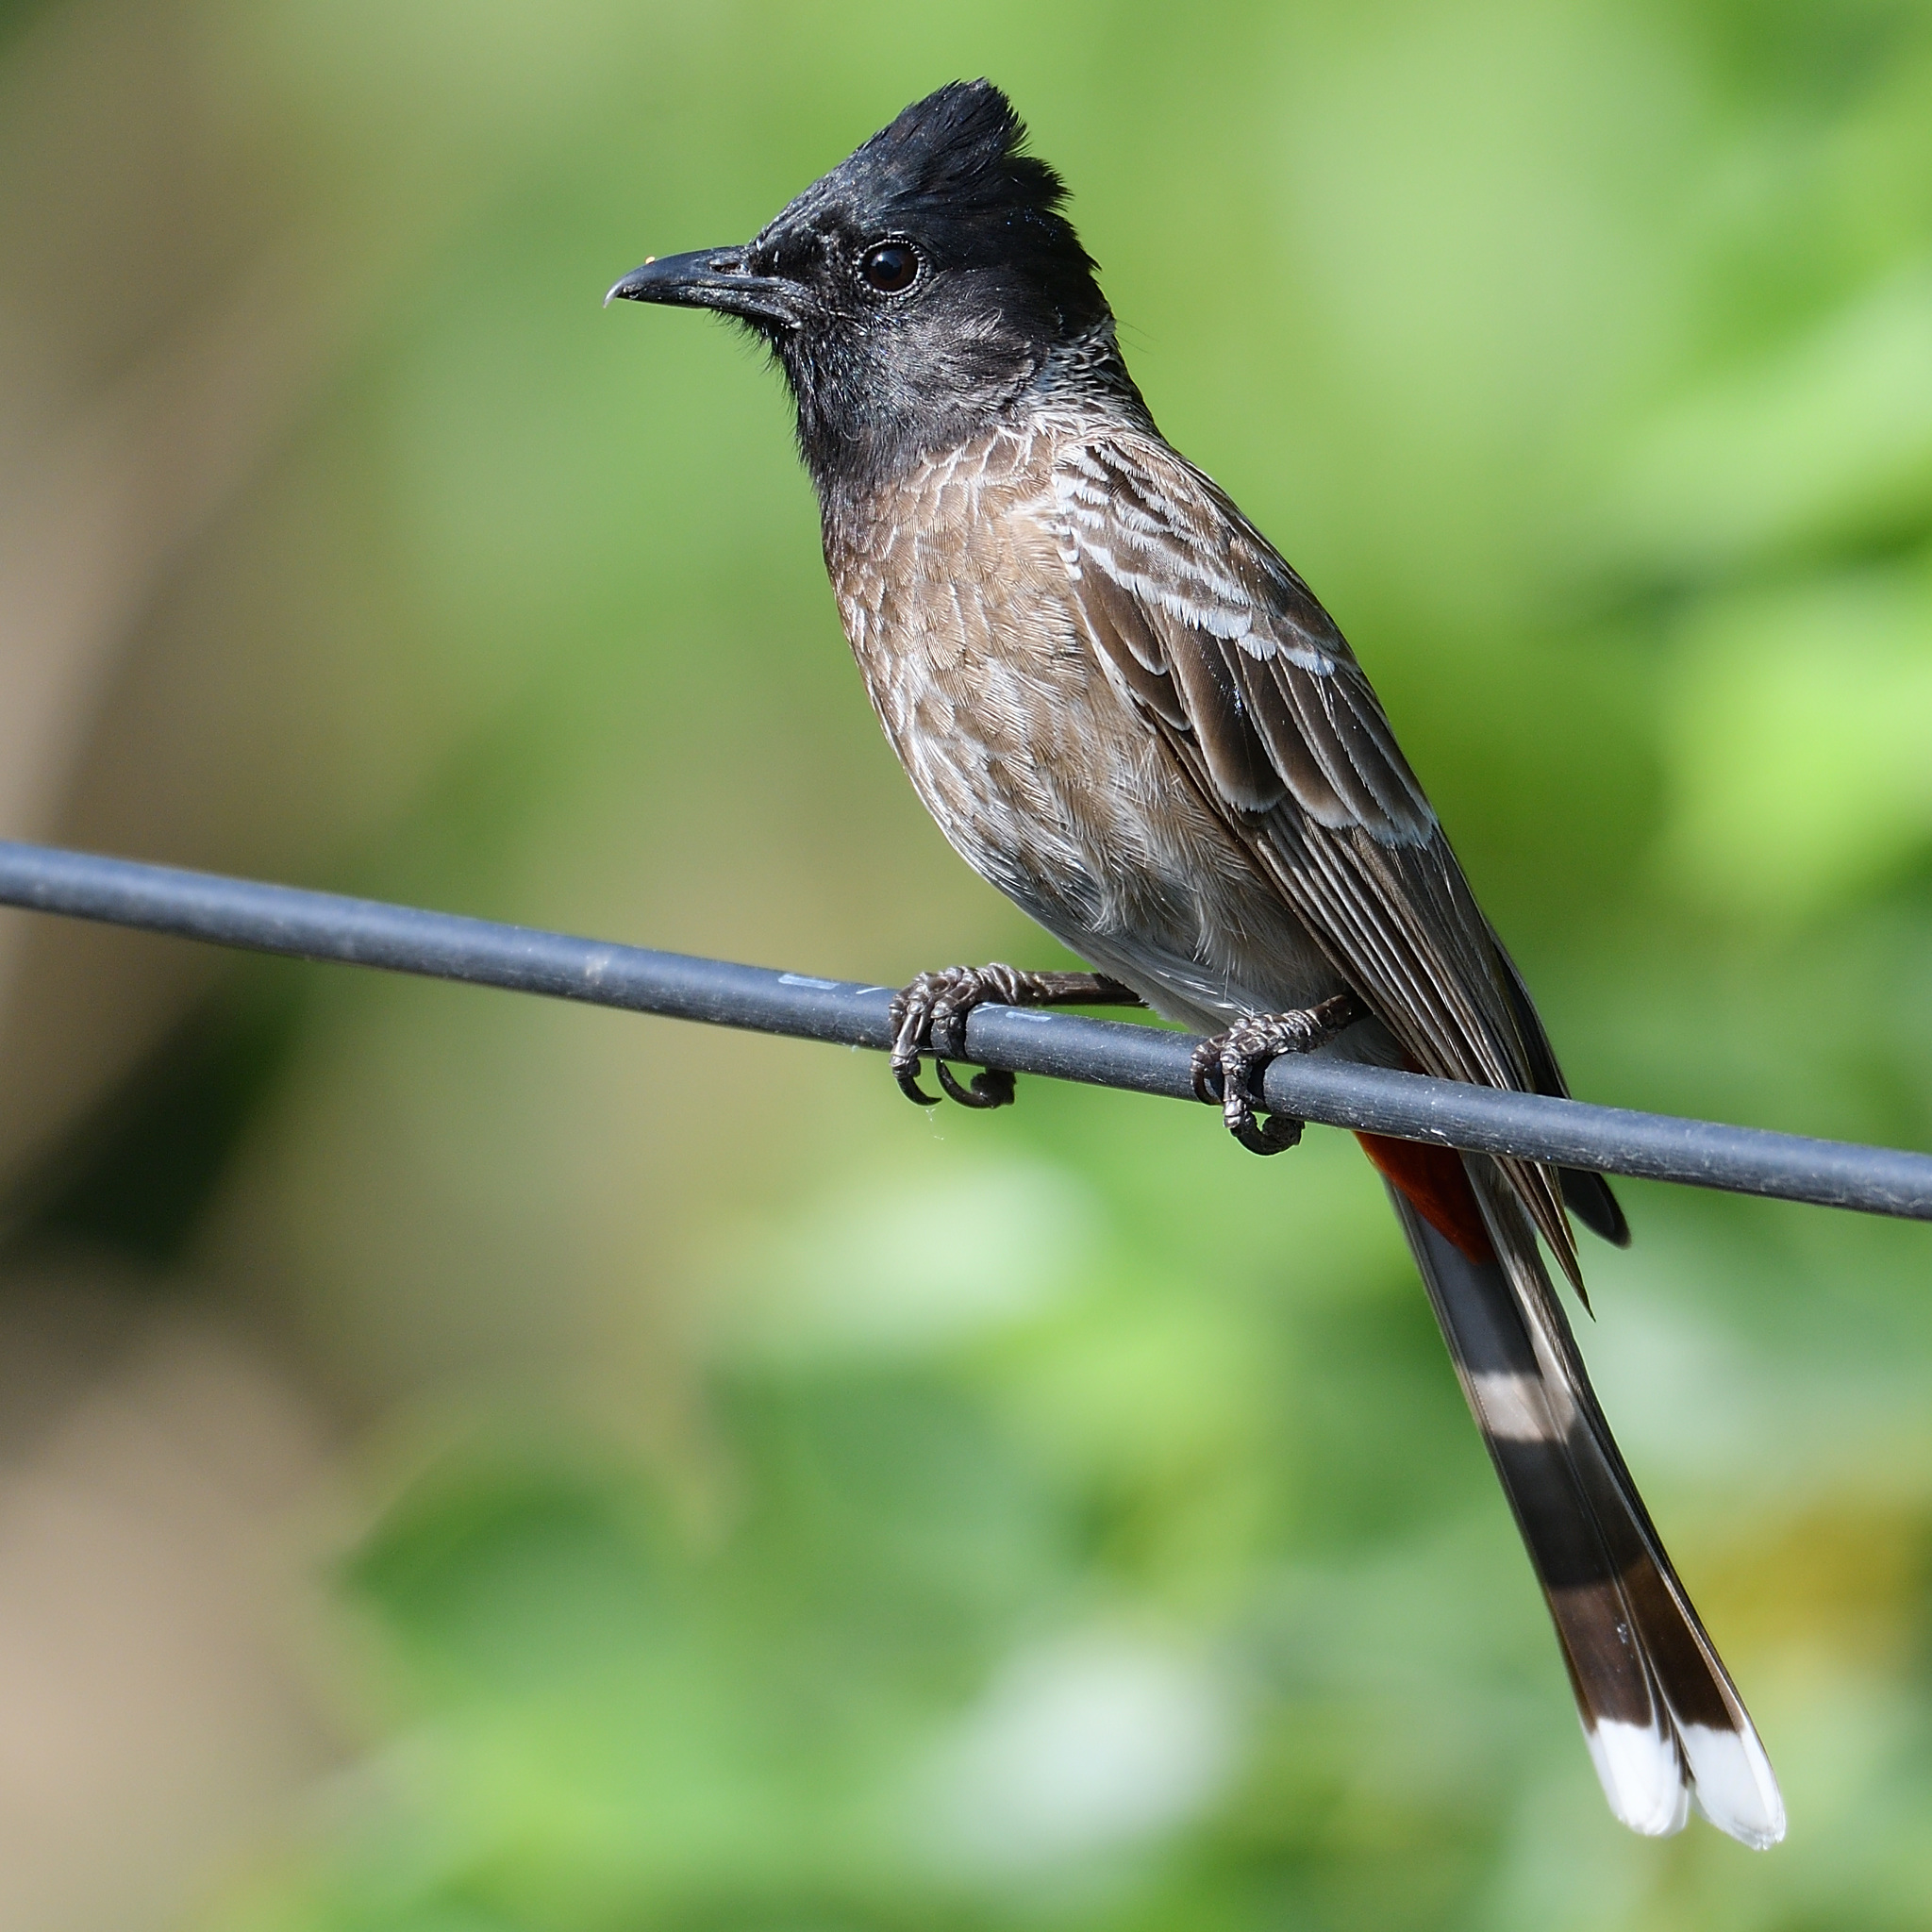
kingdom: Animalia
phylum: Chordata
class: Aves
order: Passeriformes
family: Pycnonotidae
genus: Pycnonotus
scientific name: Pycnonotus cafer
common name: Red-vented bulbul
